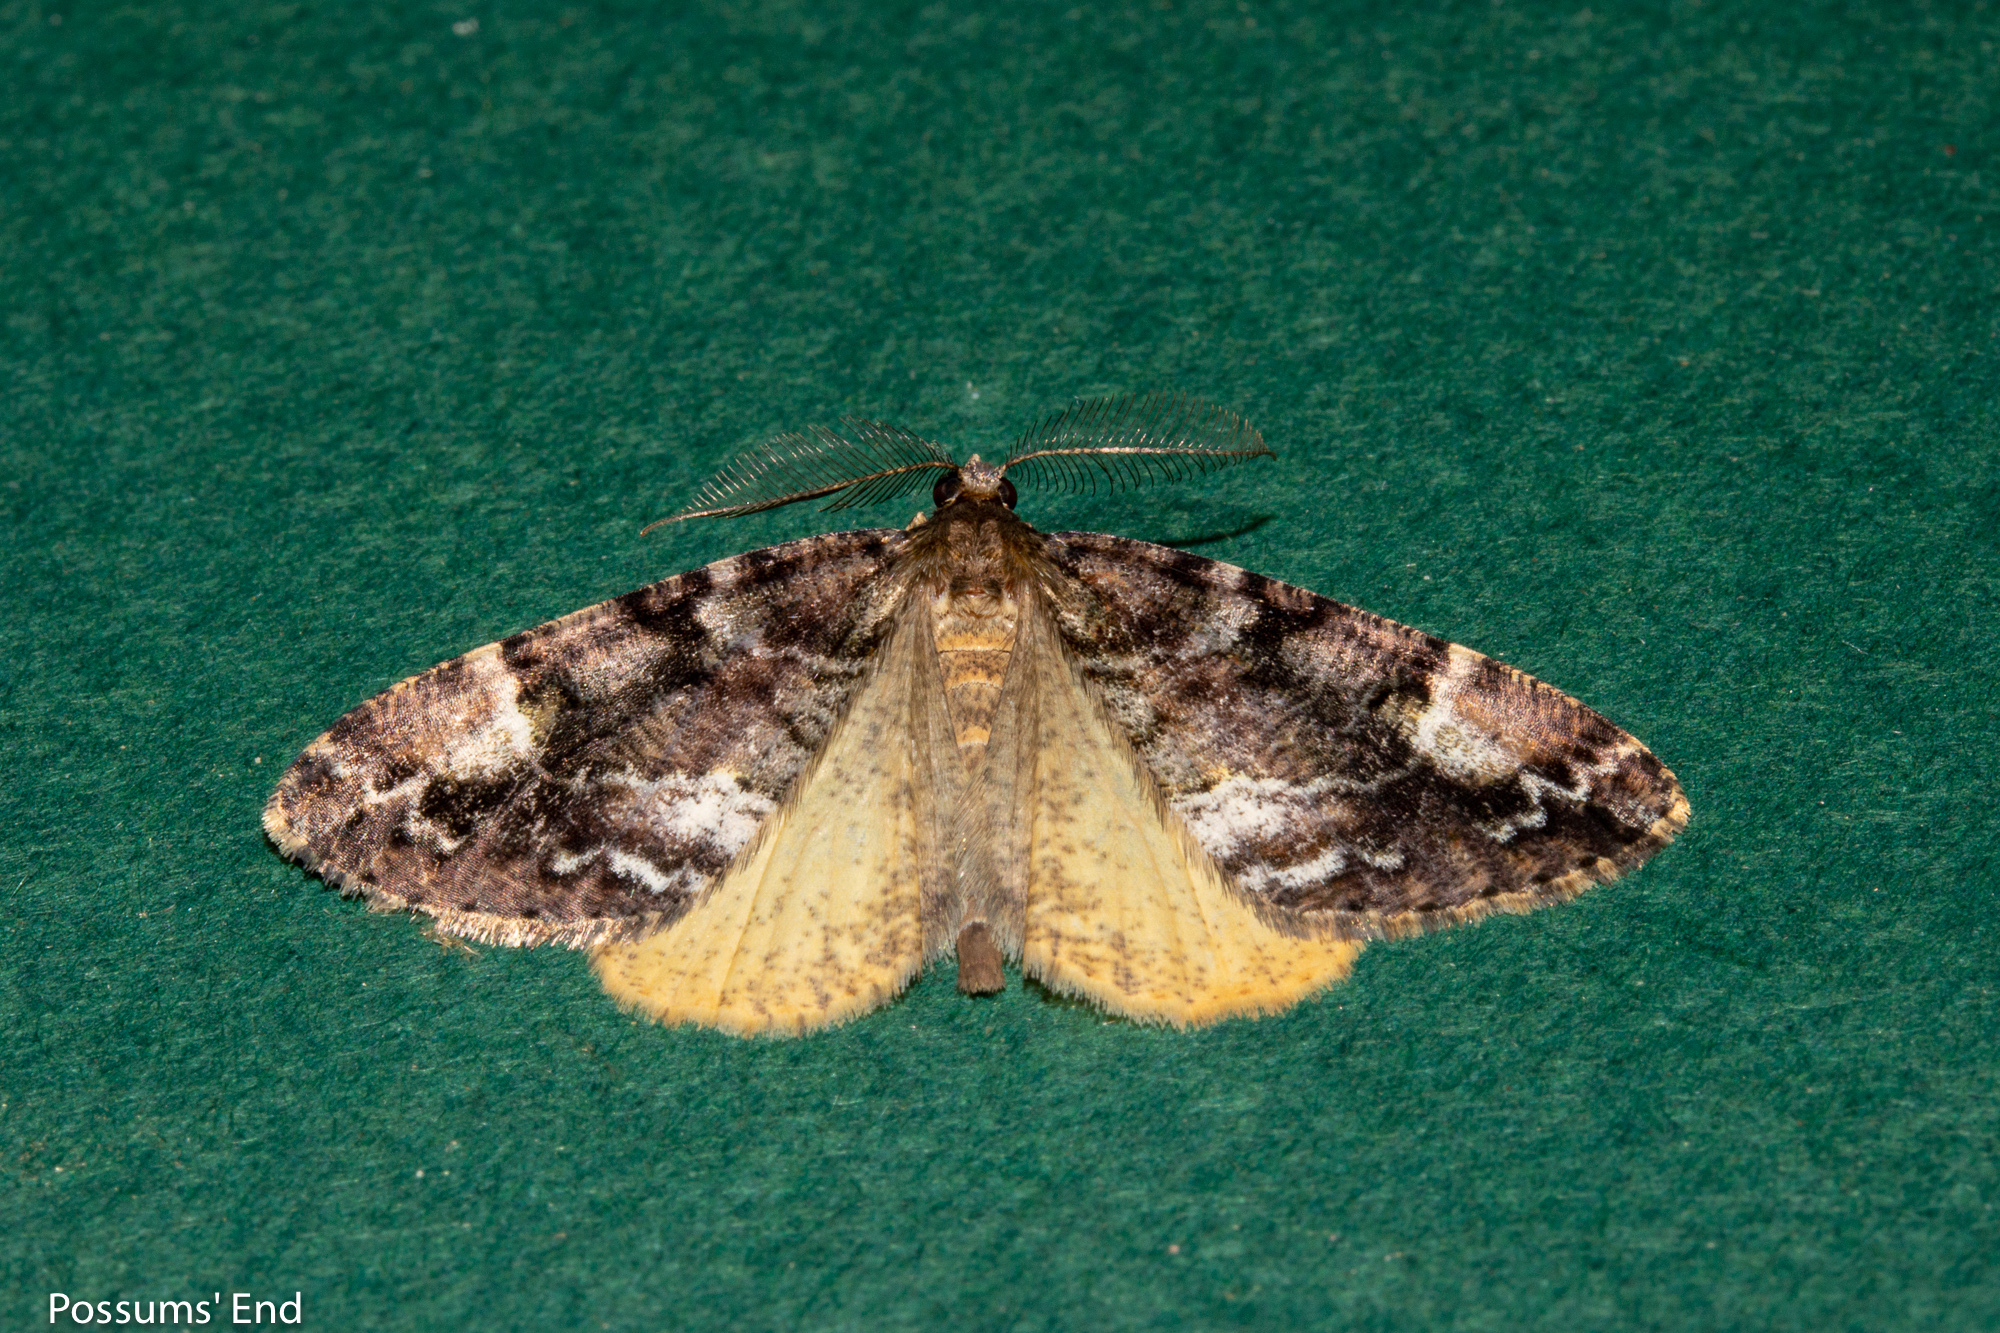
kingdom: Animalia
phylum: Arthropoda
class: Insecta
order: Lepidoptera
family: Geometridae
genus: Pseudocoremia
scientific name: Pseudocoremia productata
